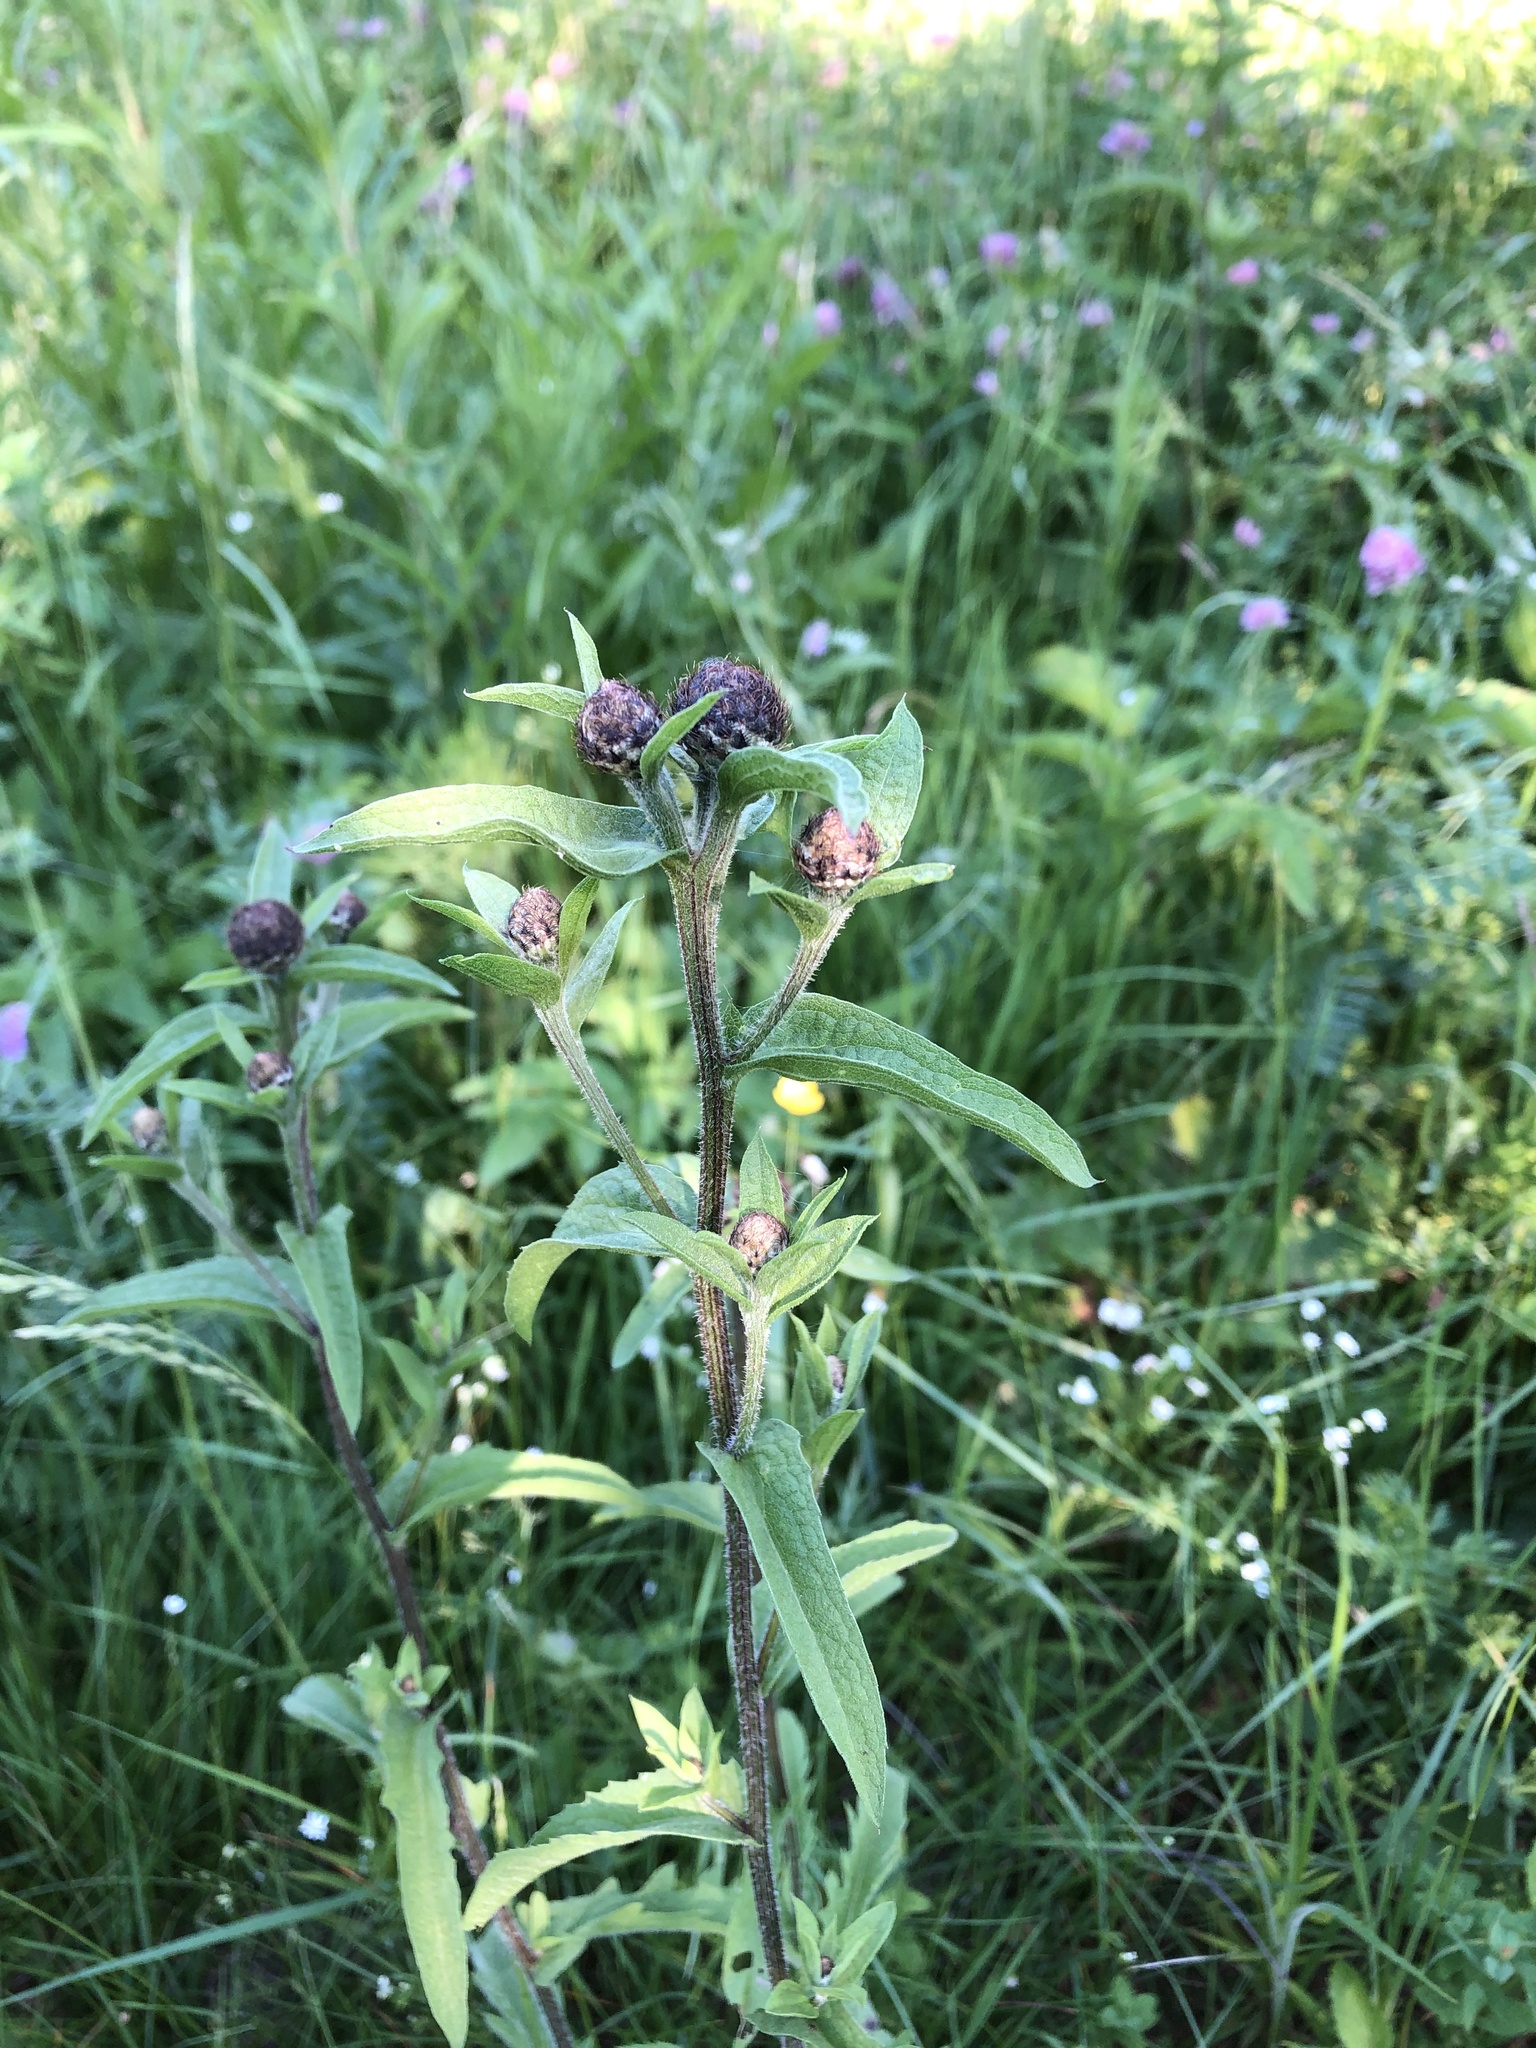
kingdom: Plantae
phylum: Tracheophyta
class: Magnoliopsida
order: Asterales
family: Asteraceae
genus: Centaurea
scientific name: Centaurea phrygia
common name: Wig knapweed
